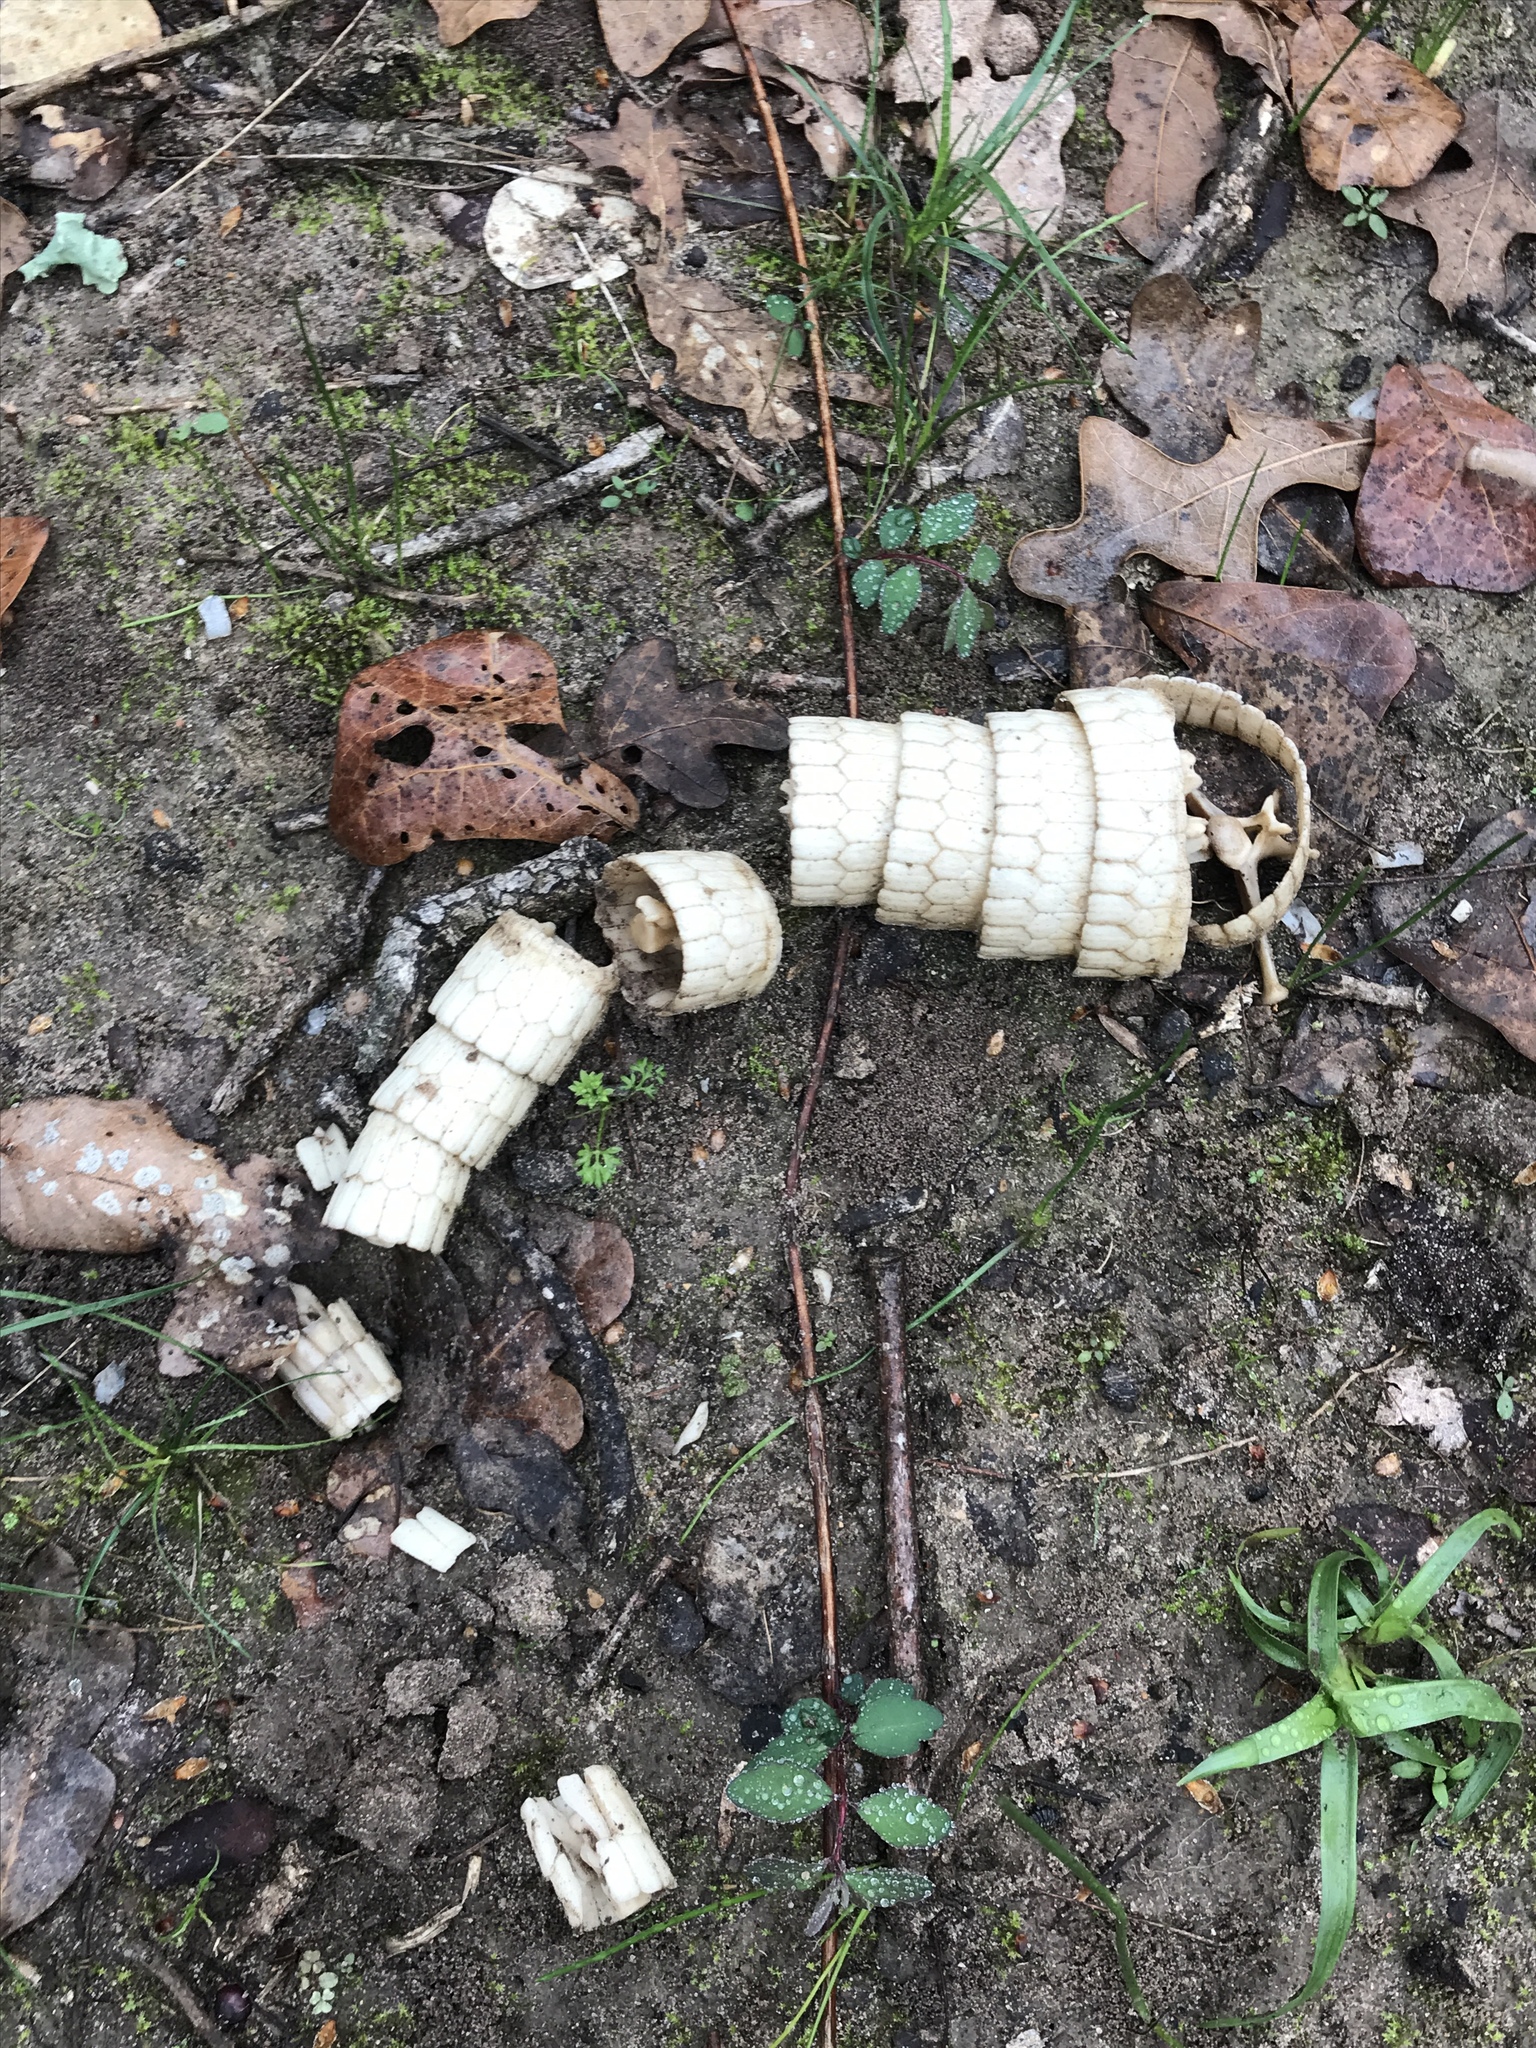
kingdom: Animalia
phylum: Chordata
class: Mammalia
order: Cingulata
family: Dasypodidae
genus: Dasypus
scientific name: Dasypus novemcinctus
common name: Nine-banded armadillo
